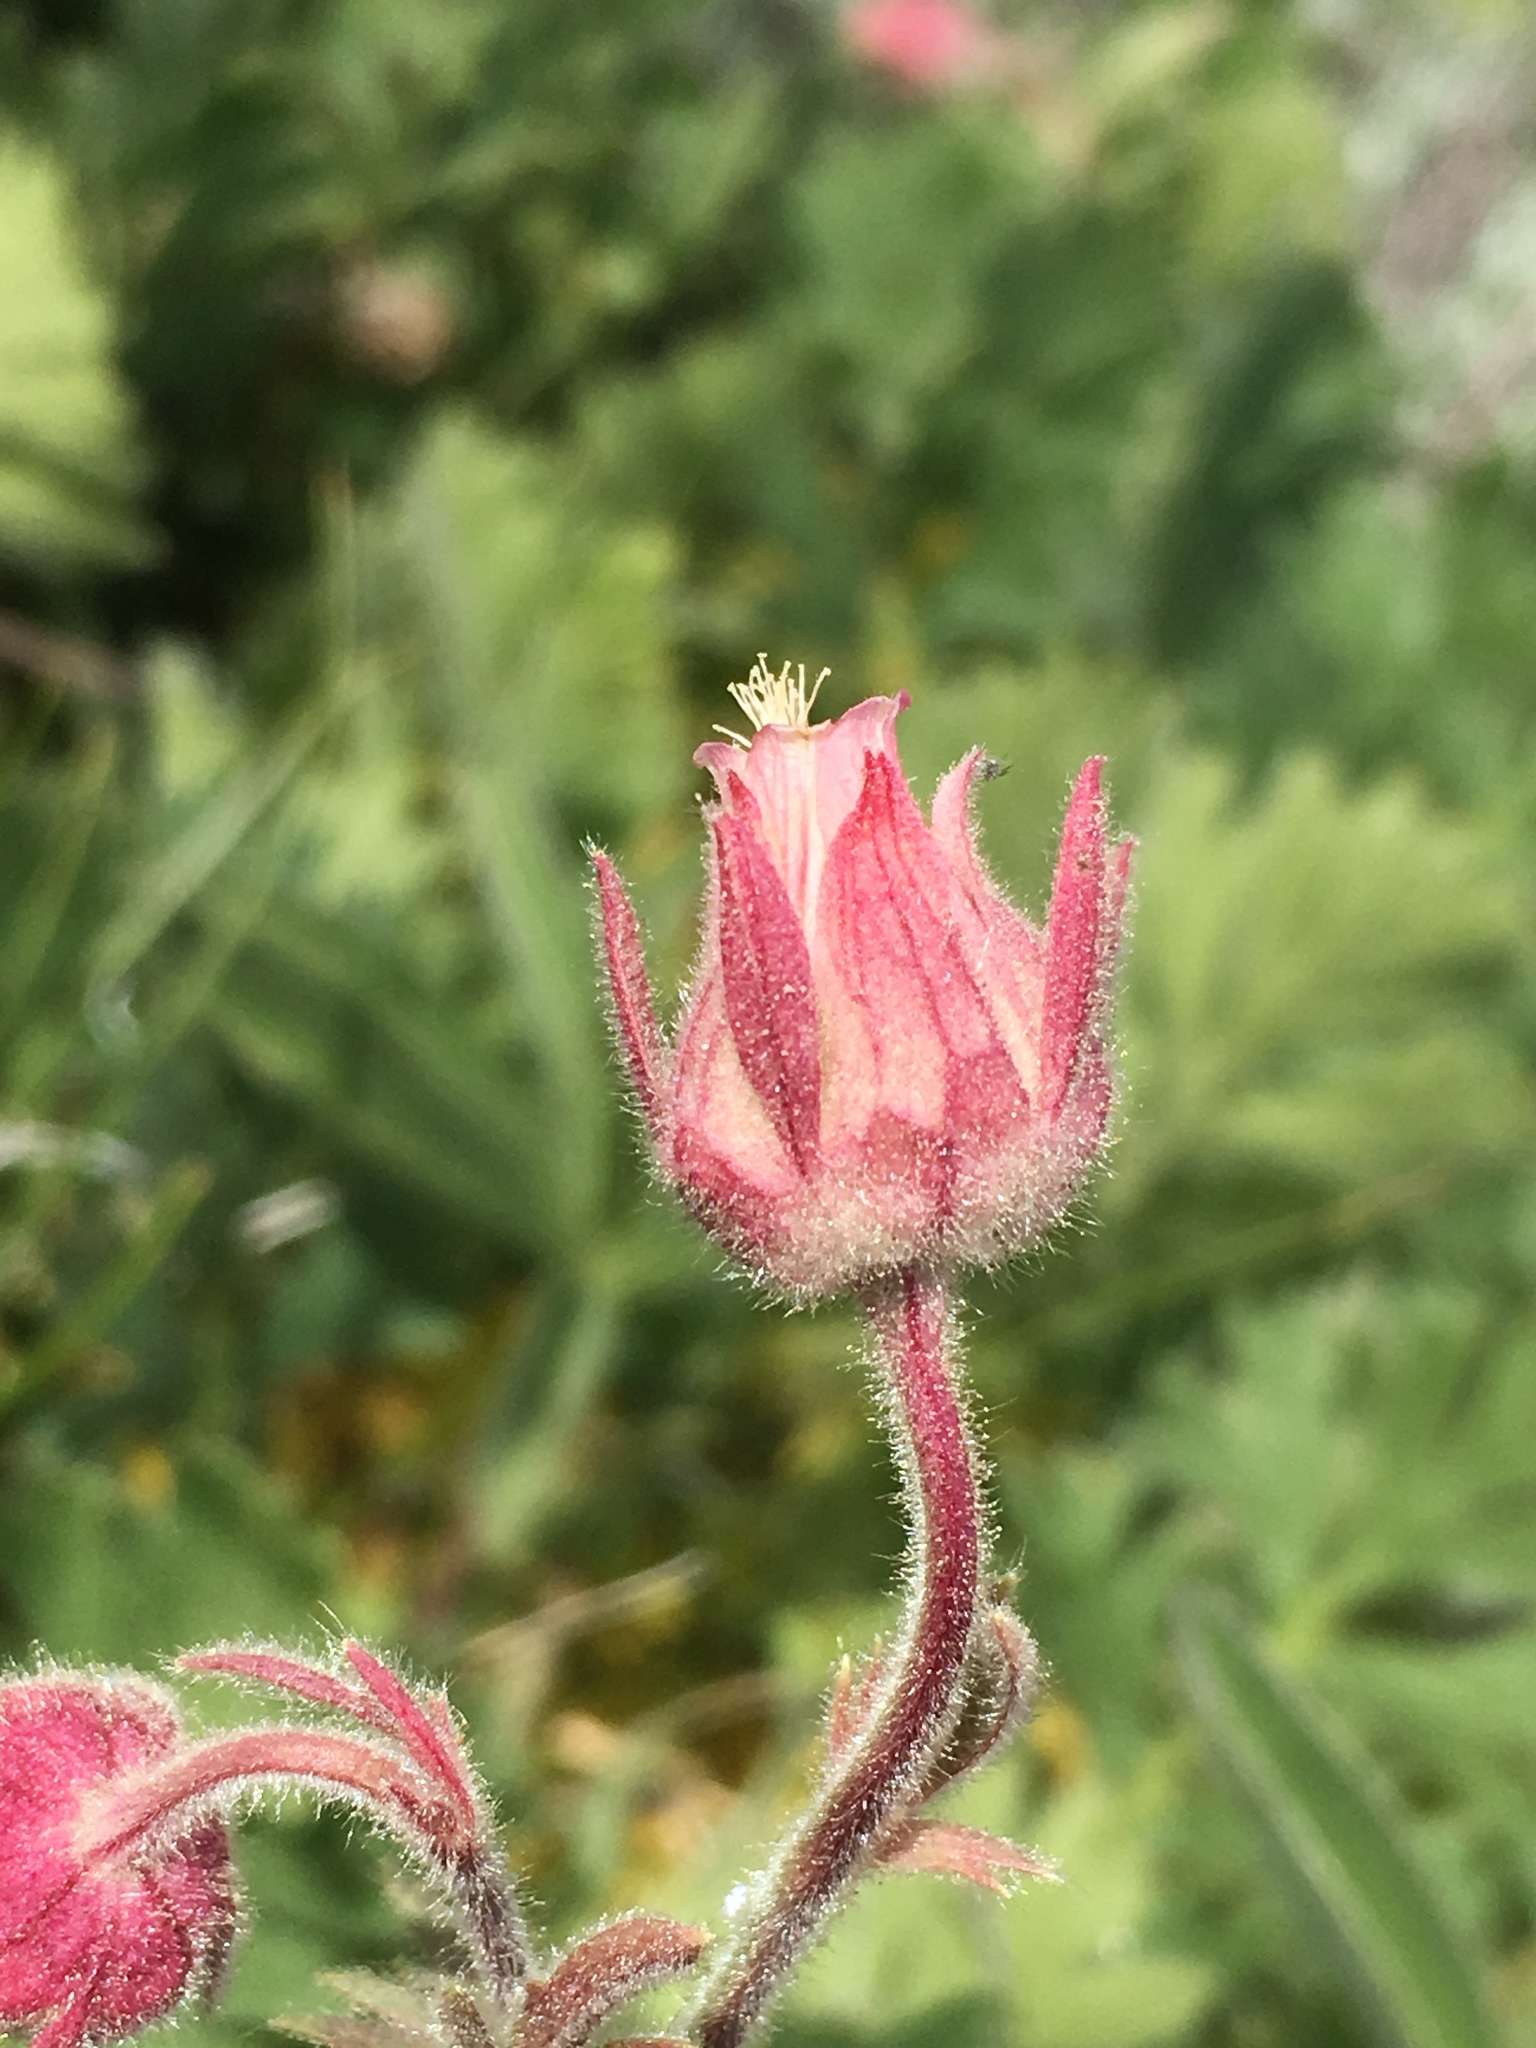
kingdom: Plantae
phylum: Tracheophyta
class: Magnoliopsida
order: Rosales
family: Rosaceae
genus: Geum
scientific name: Geum triflorum
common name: Old man's whiskers
